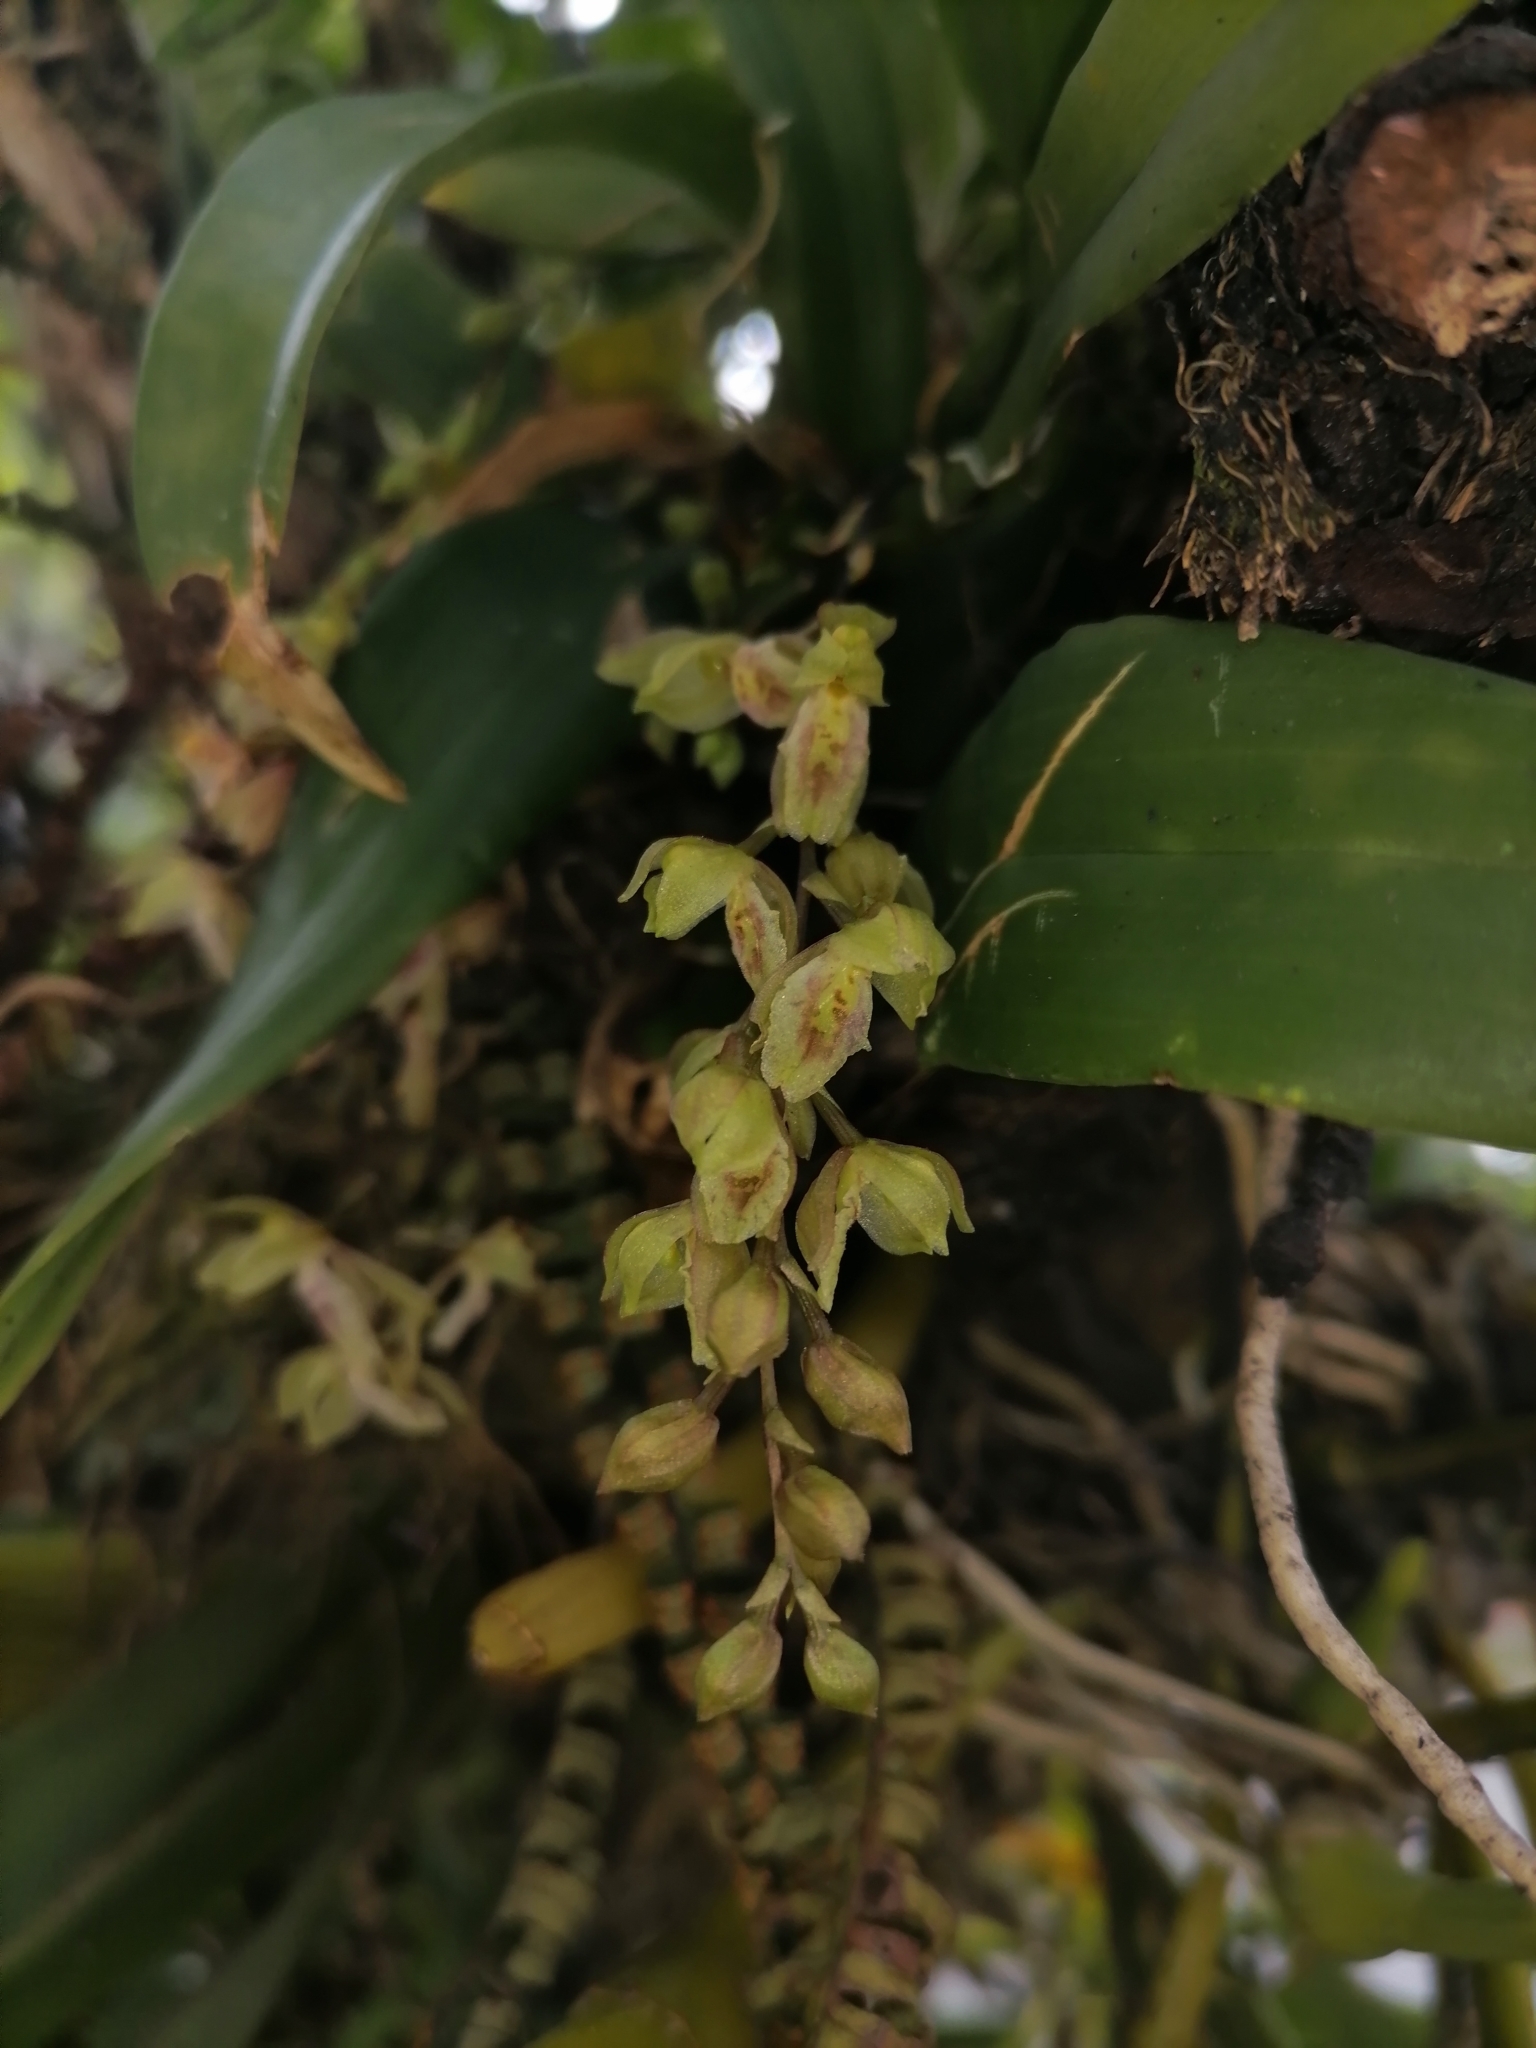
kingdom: Plantae
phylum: Tracheophyta
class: Liliopsida
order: Asparagales
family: Orchidaceae
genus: Leochilus
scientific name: Leochilus oncidioides
